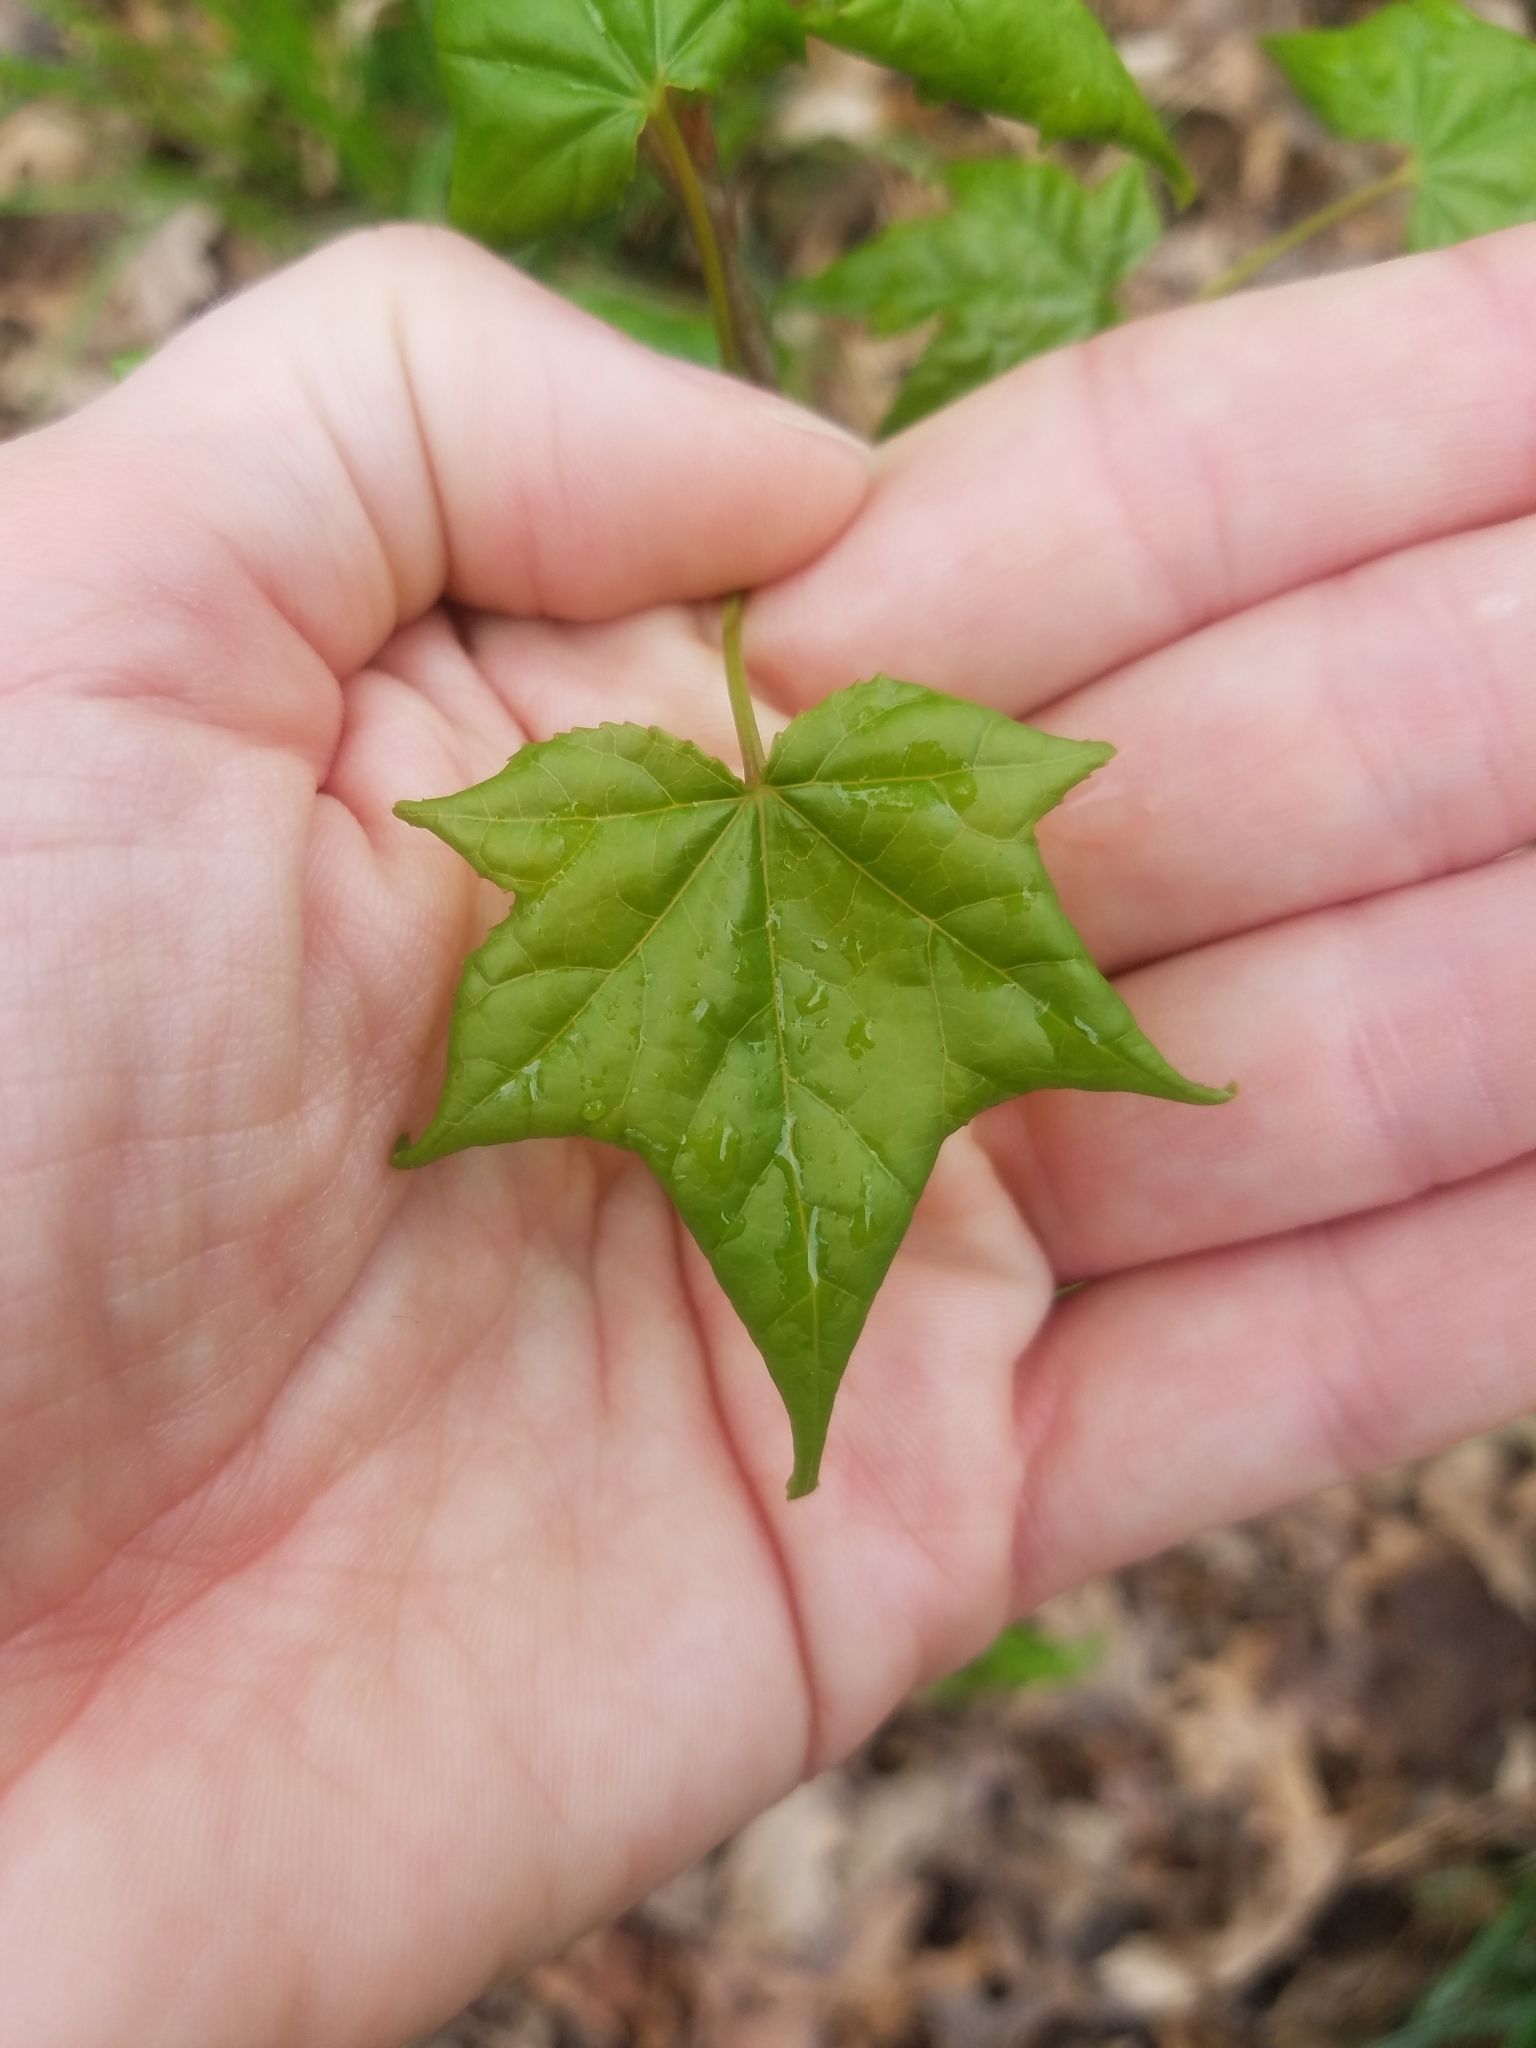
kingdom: Plantae
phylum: Tracheophyta
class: Magnoliopsida
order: Saxifragales
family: Altingiaceae
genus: Liquidambar
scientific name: Liquidambar styraciflua
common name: Sweet gum
